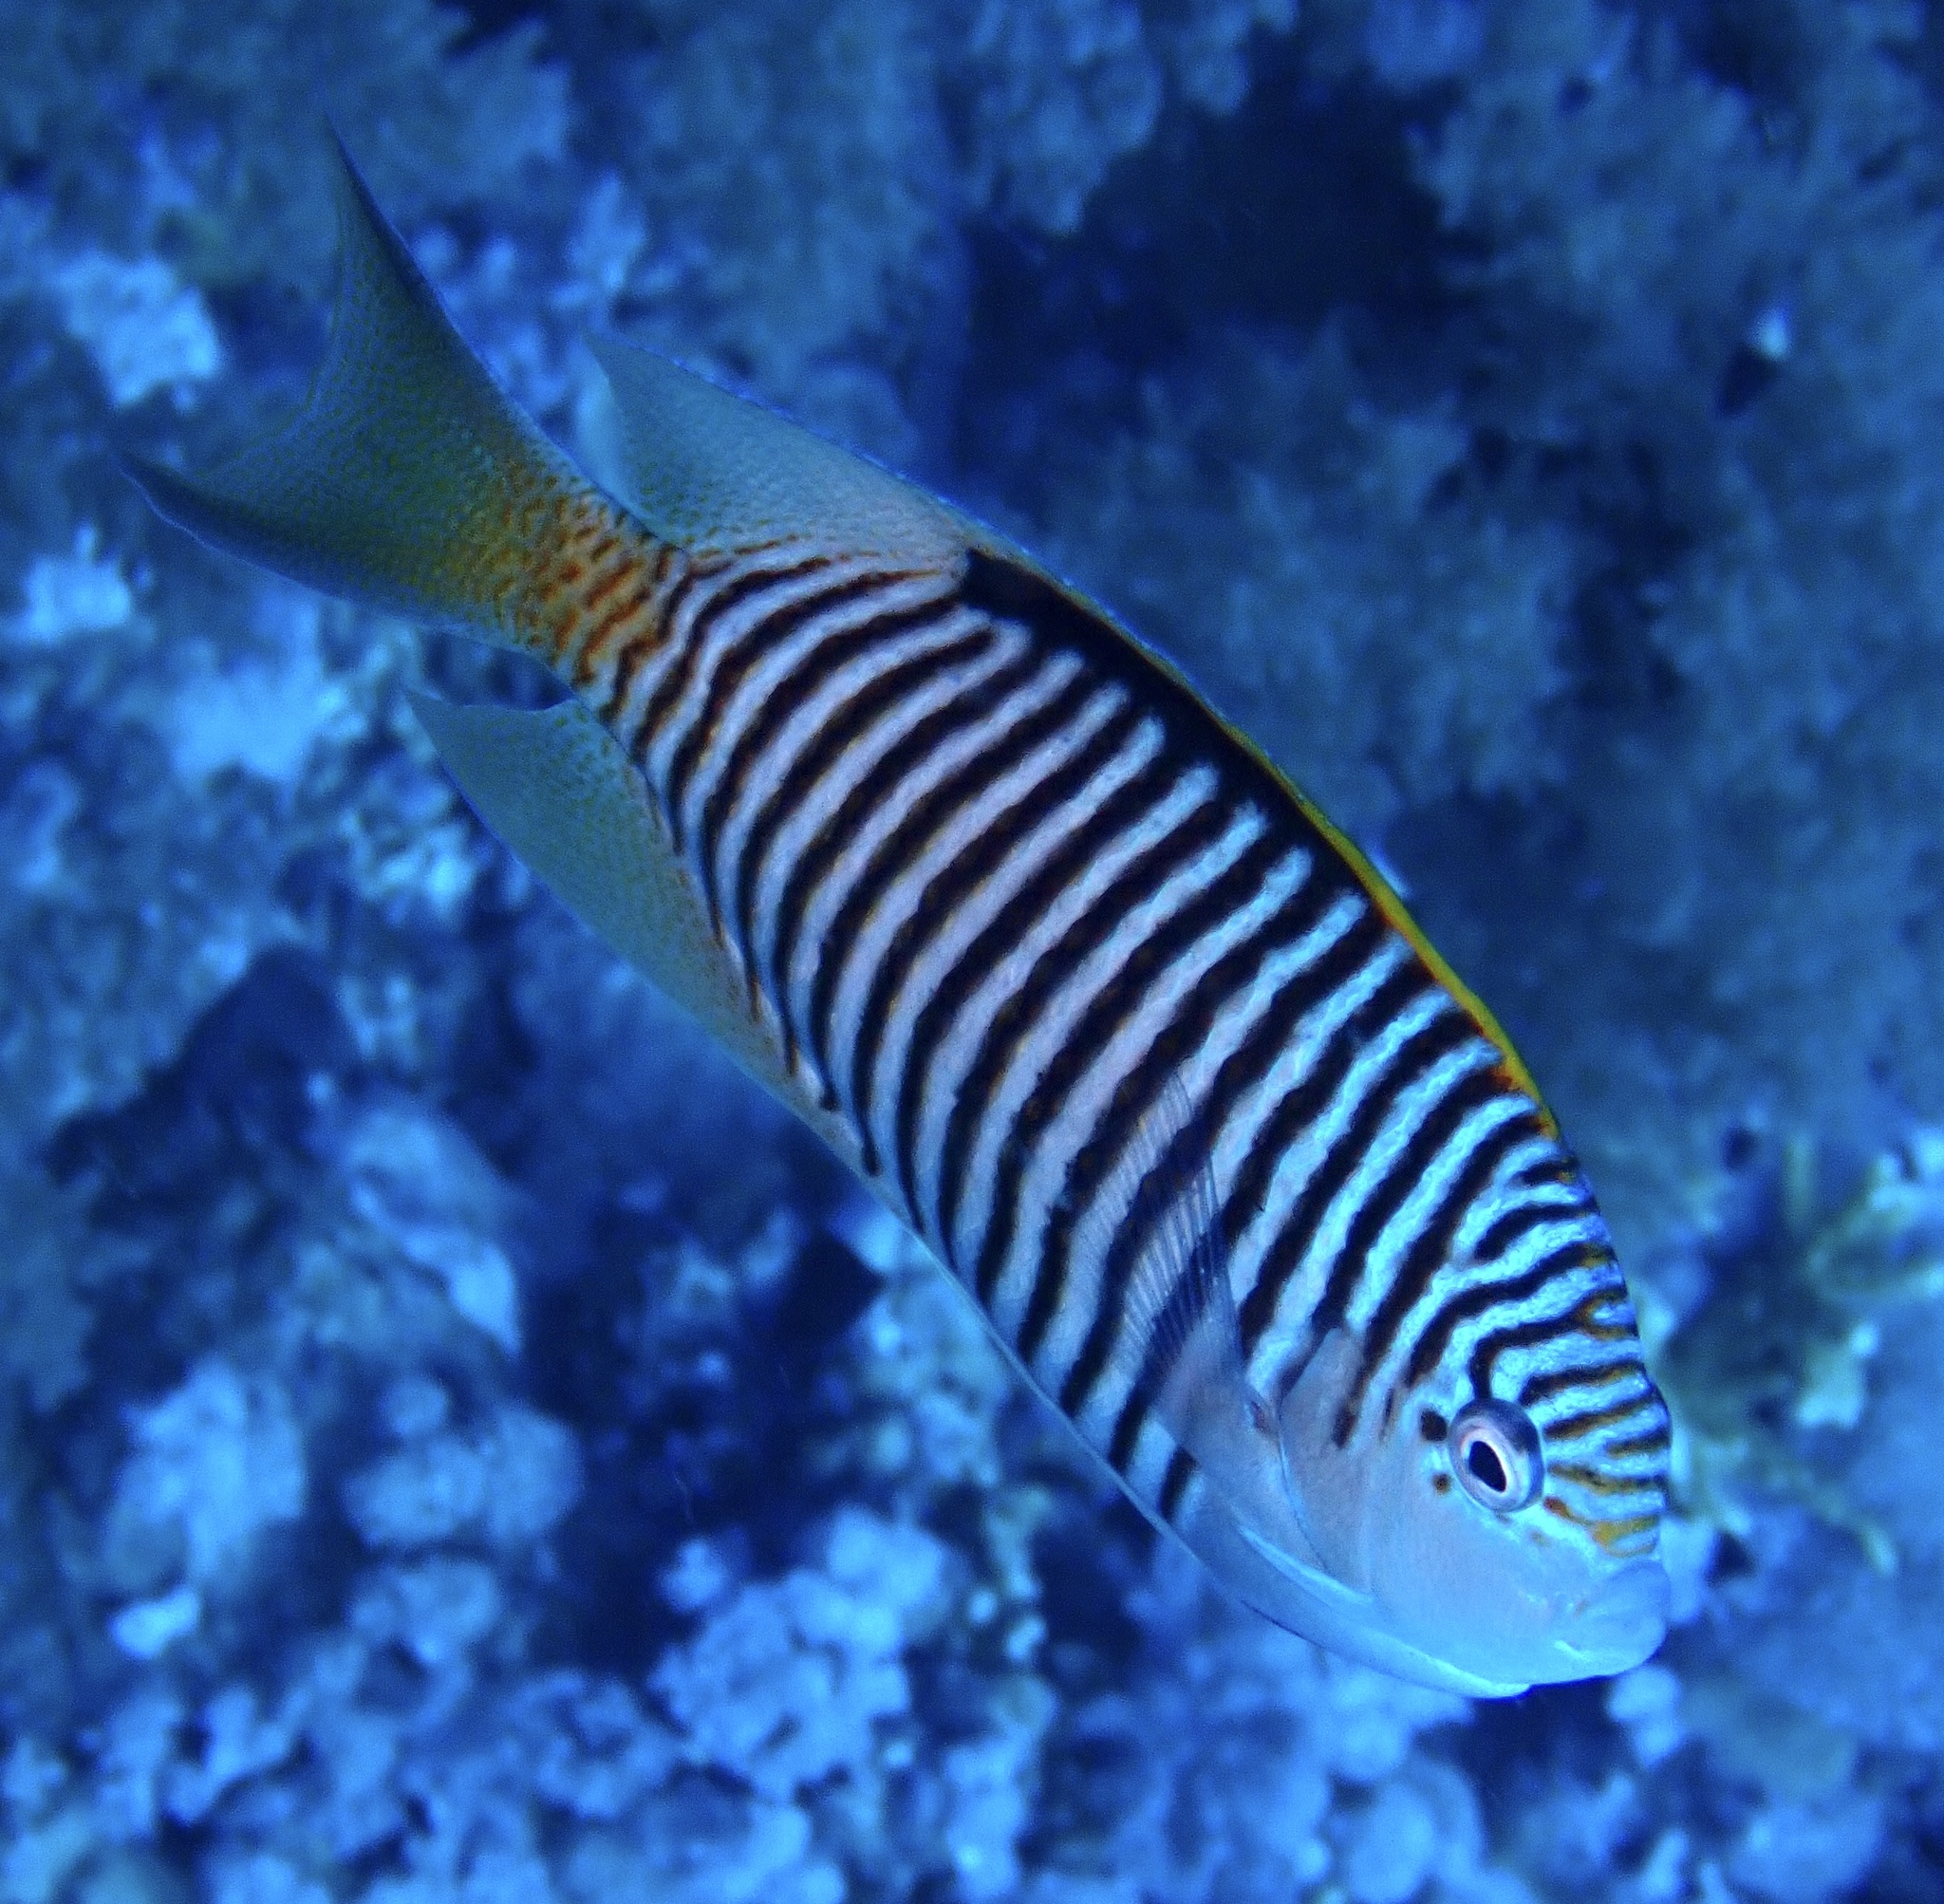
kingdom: Animalia
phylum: Chordata
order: Perciformes
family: Pomacanthidae
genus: Genicanthus
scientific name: Genicanthus caudovittatus
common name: Lyretail angelfish
